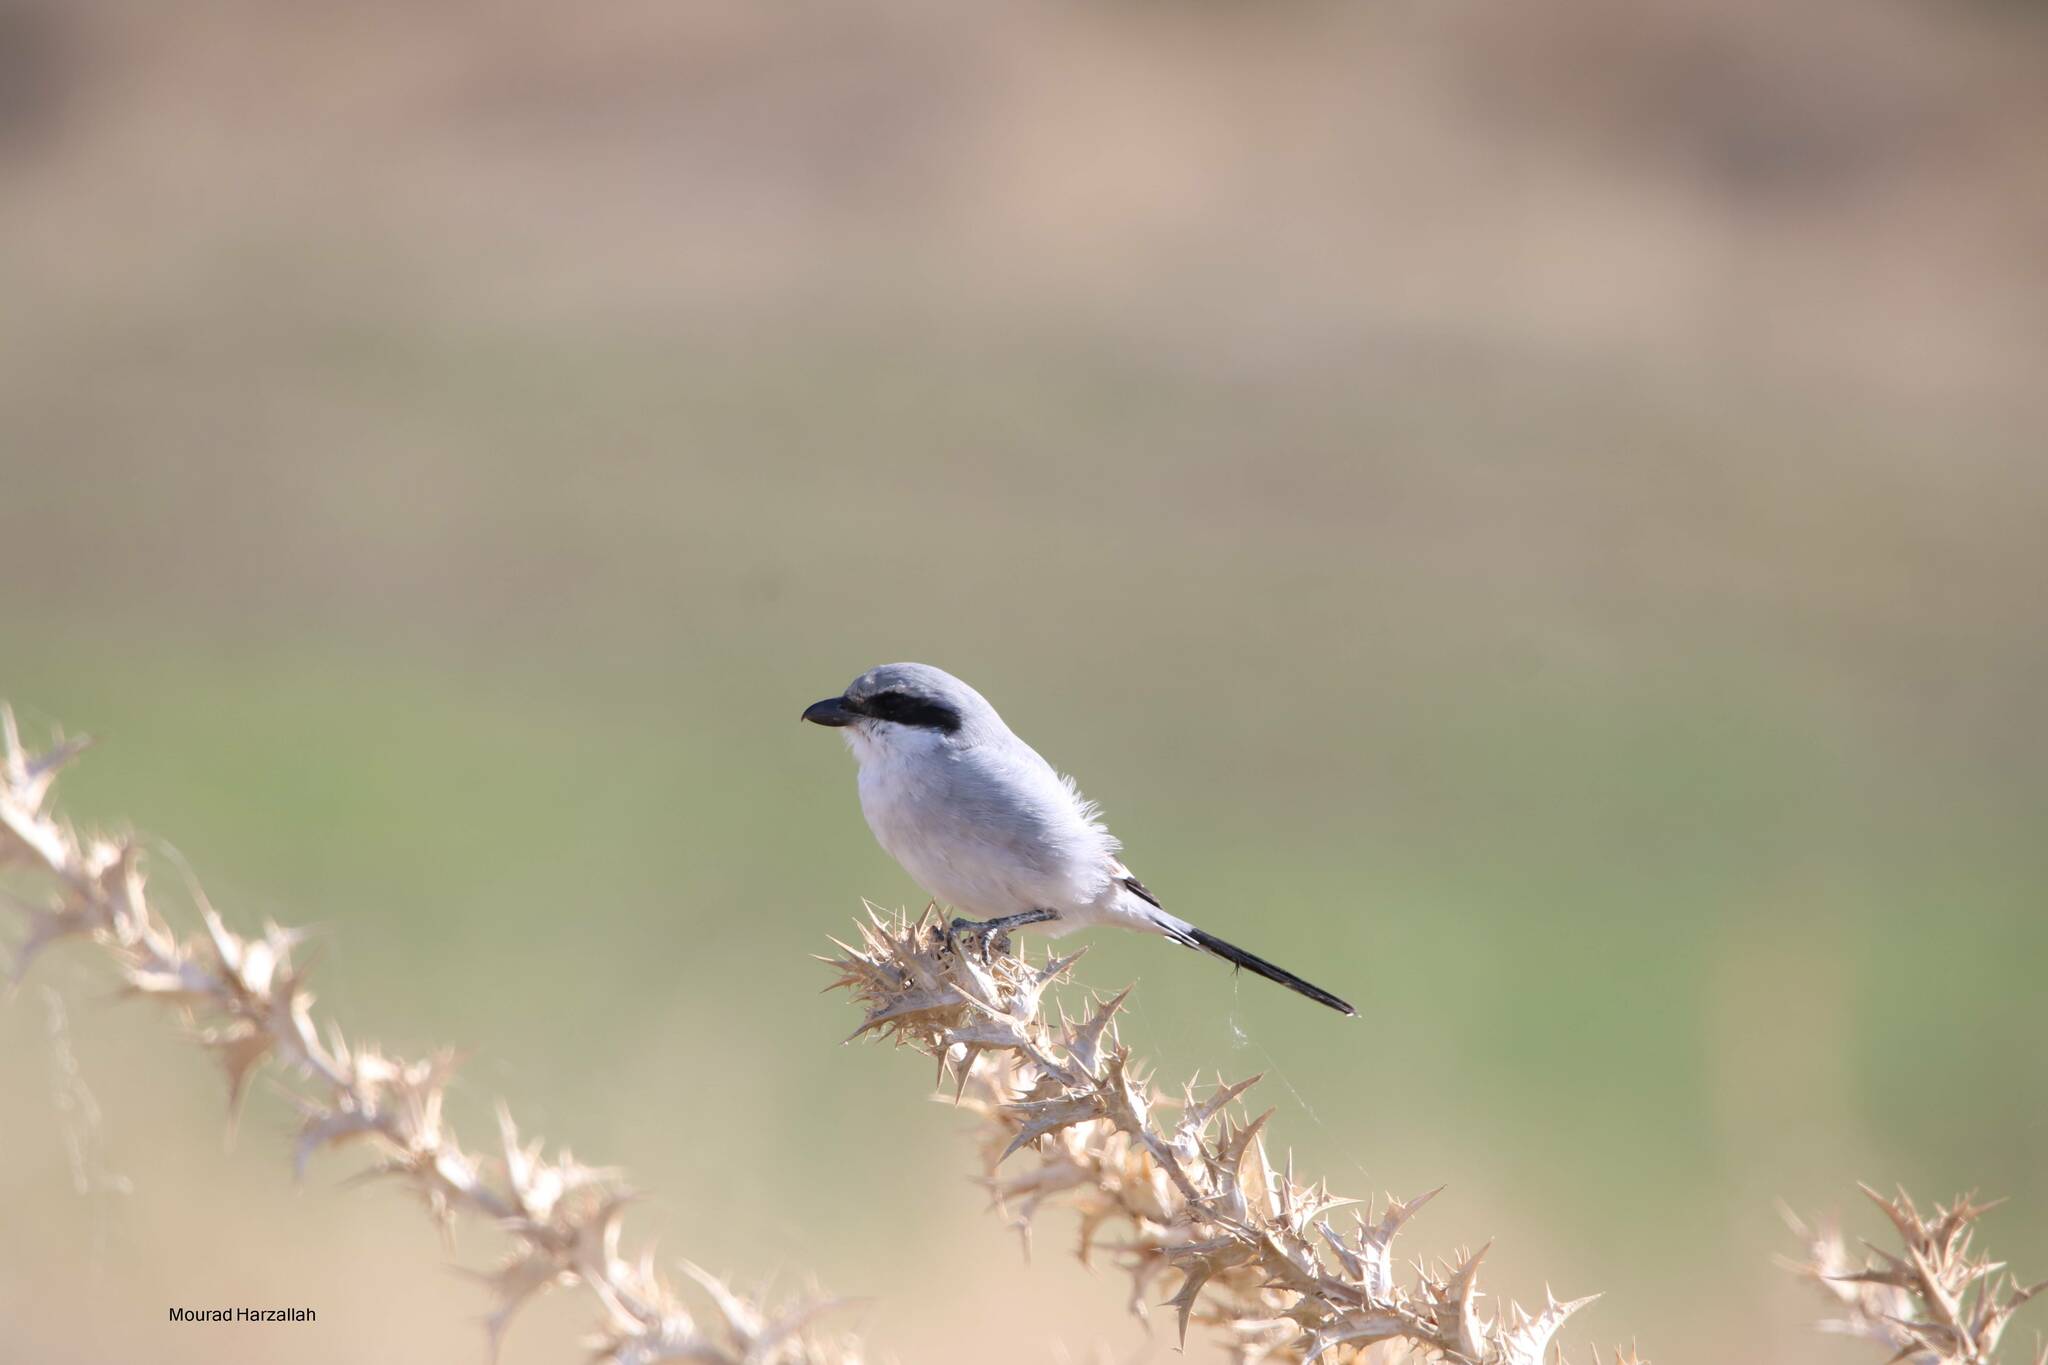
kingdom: Animalia
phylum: Chordata
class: Aves
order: Passeriformes
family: Laniidae
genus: Lanius
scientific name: Lanius excubitor
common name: Great grey shrike
